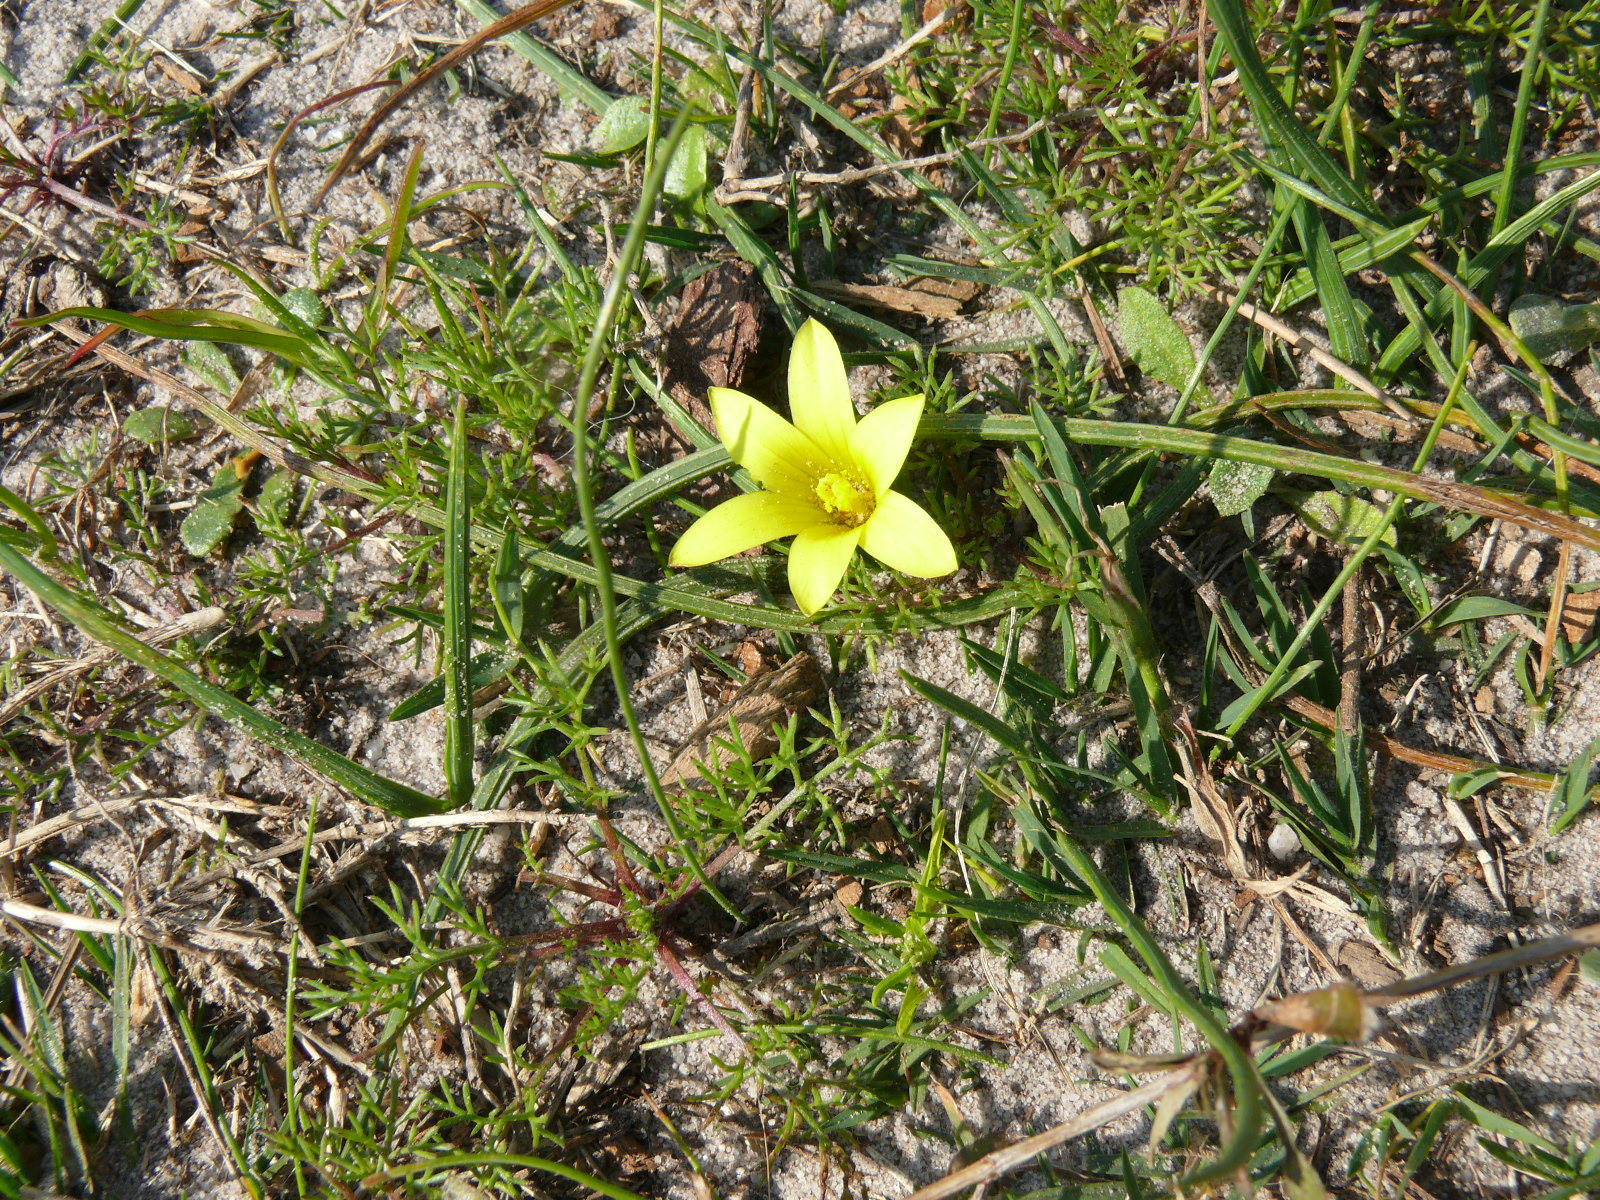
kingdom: Plantae
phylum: Tracheophyta
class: Liliopsida
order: Asparagales
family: Iridaceae
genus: Romulea
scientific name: Romulea flava
